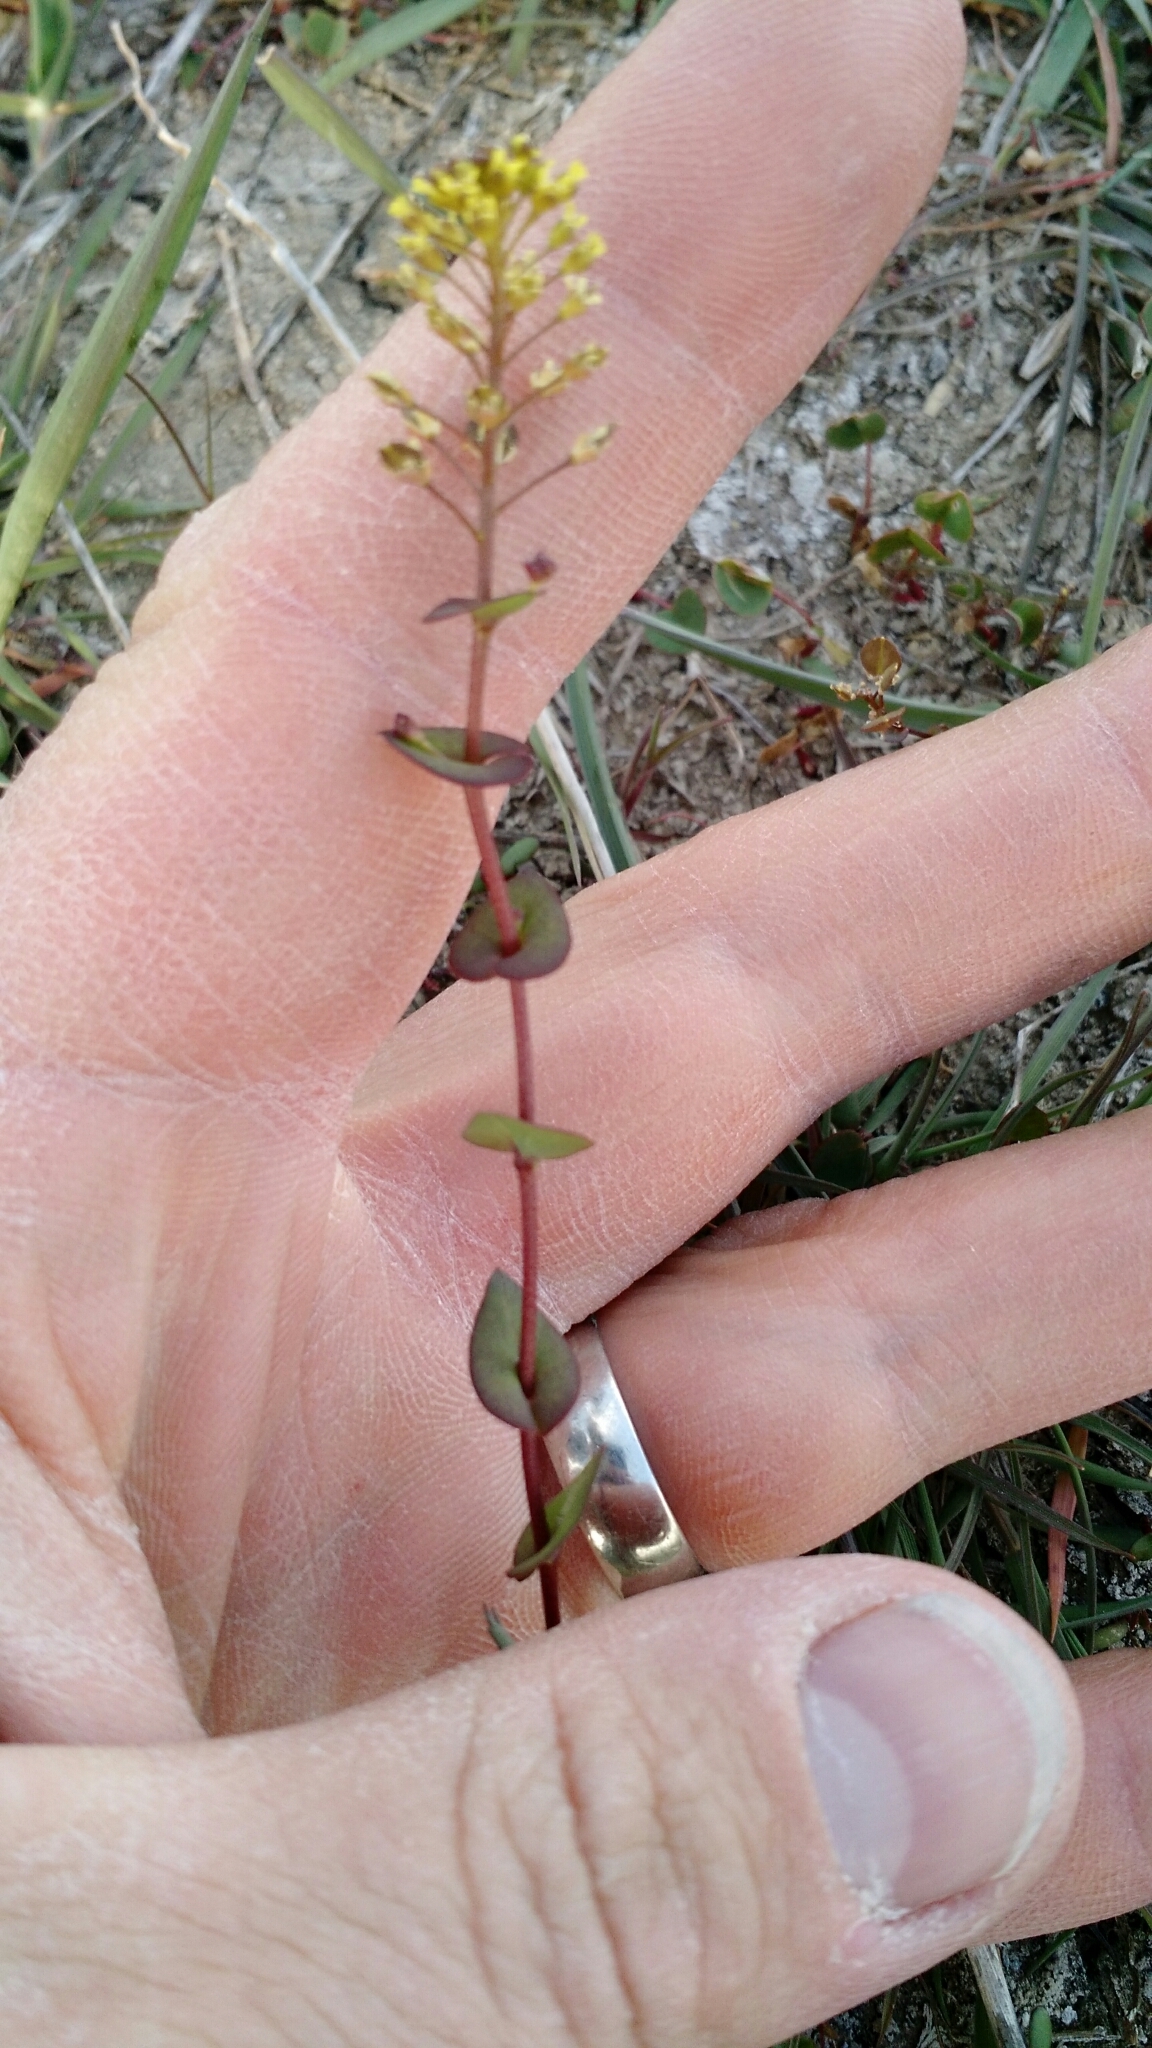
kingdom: Plantae
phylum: Tracheophyta
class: Magnoliopsida
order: Brassicales
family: Brassicaceae
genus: Lepidium
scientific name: Lepidium perfoliatum
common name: Perfoliate pepperwort
